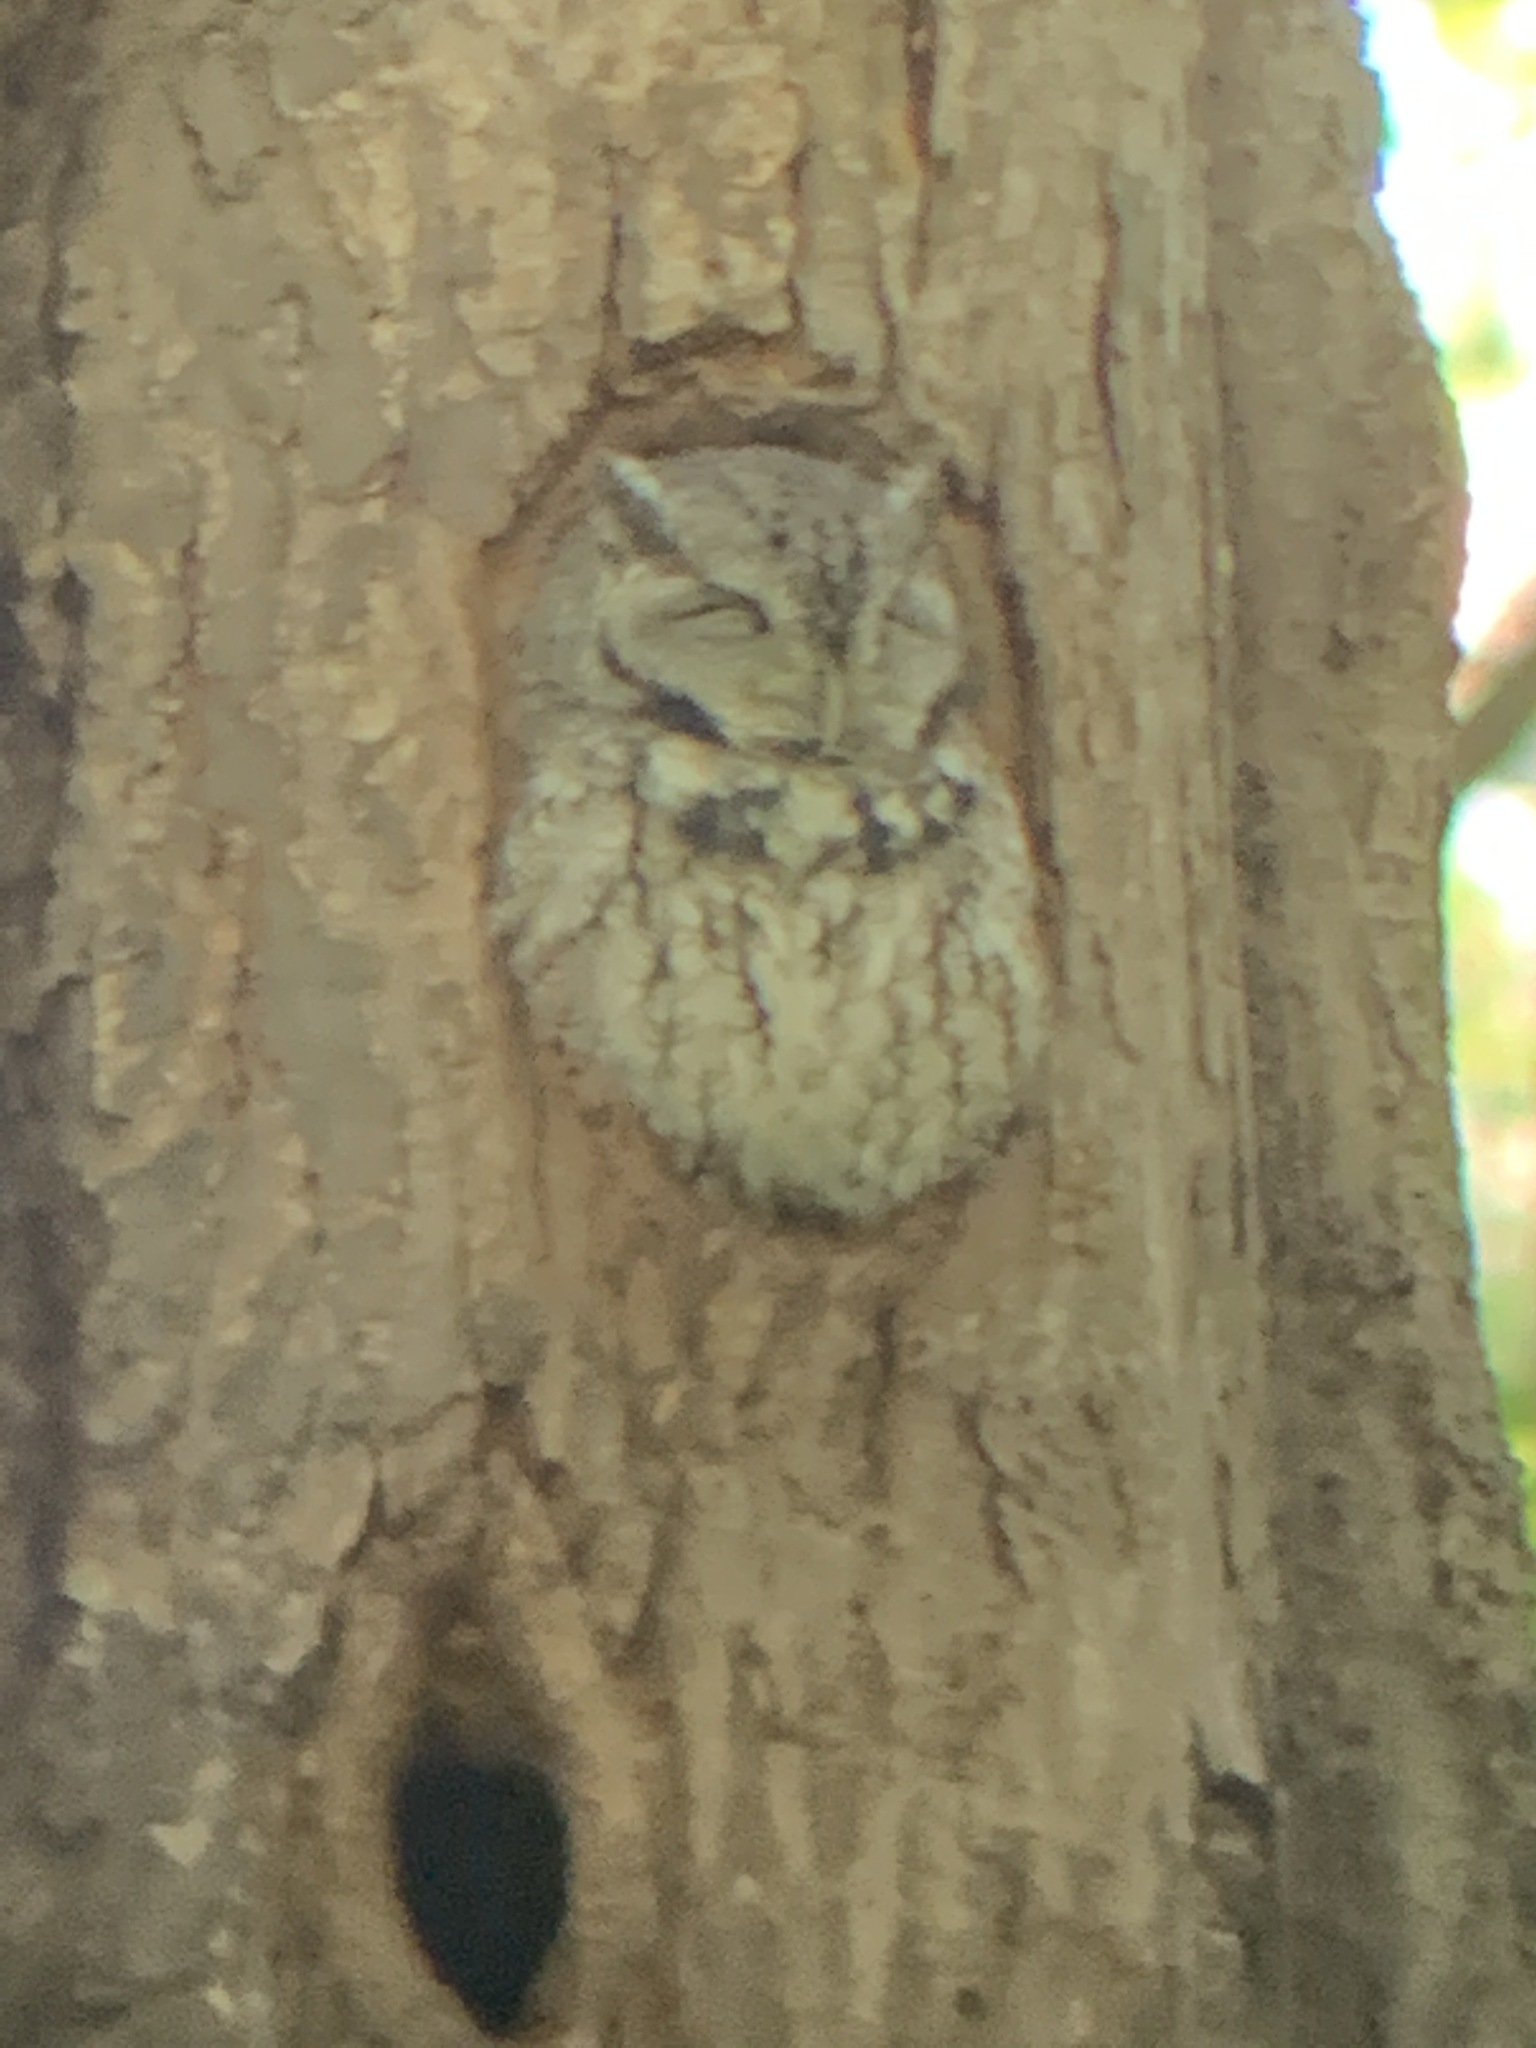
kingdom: Animalia
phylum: Chordata
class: Aves
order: Strigiformes
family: Strigidae
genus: Megascops
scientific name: Megascops asio
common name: Eastern screech-owl
